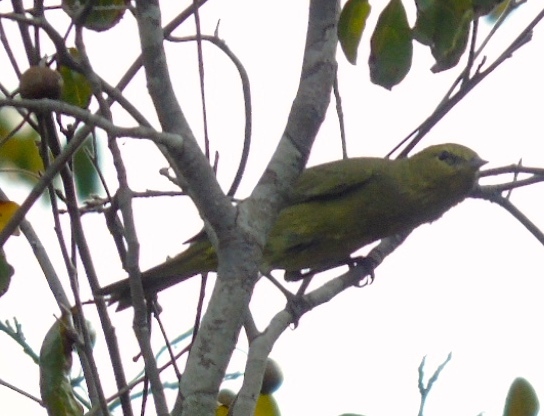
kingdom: Animalia
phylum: Chordata
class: Aves
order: Passeriformes
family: Parulidae
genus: Leiothlypis
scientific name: Leiothlypis celata
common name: Orange-crowned warbler
